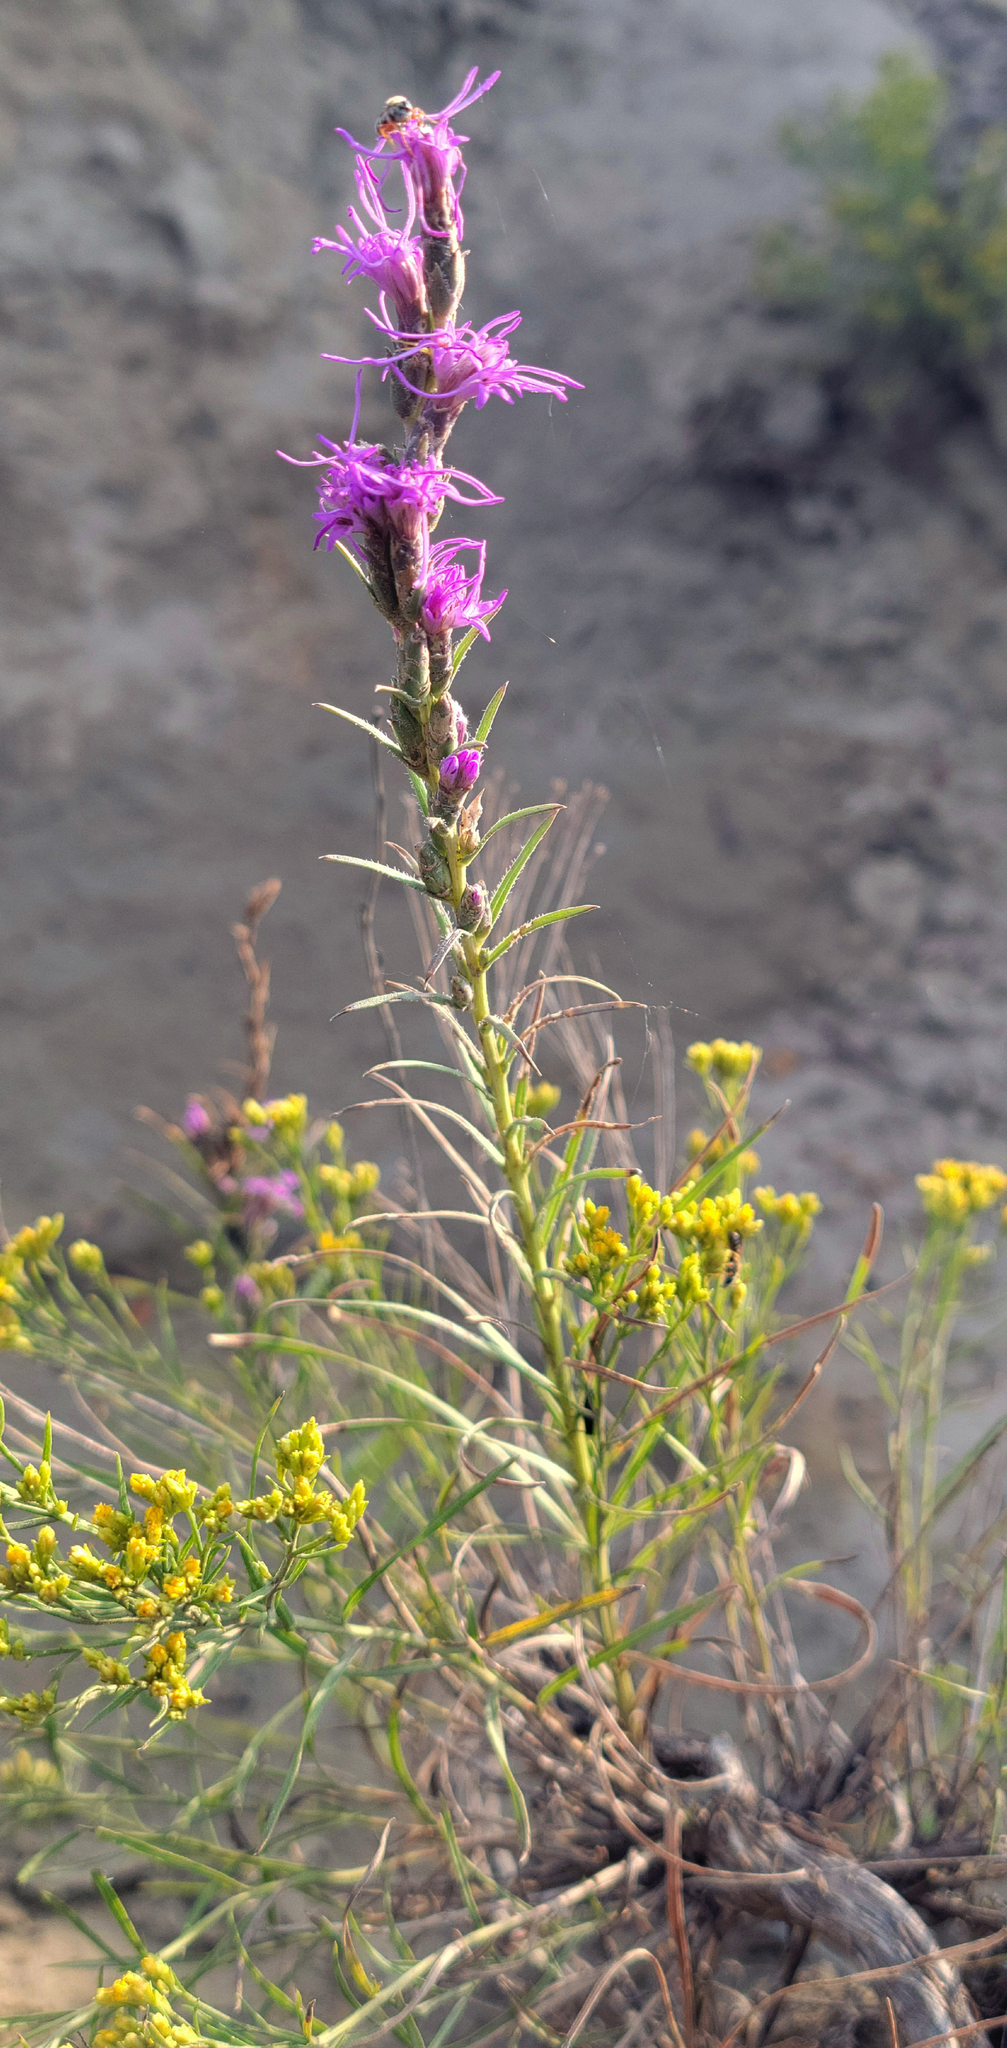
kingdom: Plantae
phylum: Tracheophyta
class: Magnoliopsida
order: Asterales
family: Asteraceae
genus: Liatris
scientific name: Liatris punctata
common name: Dotted gayfeather
